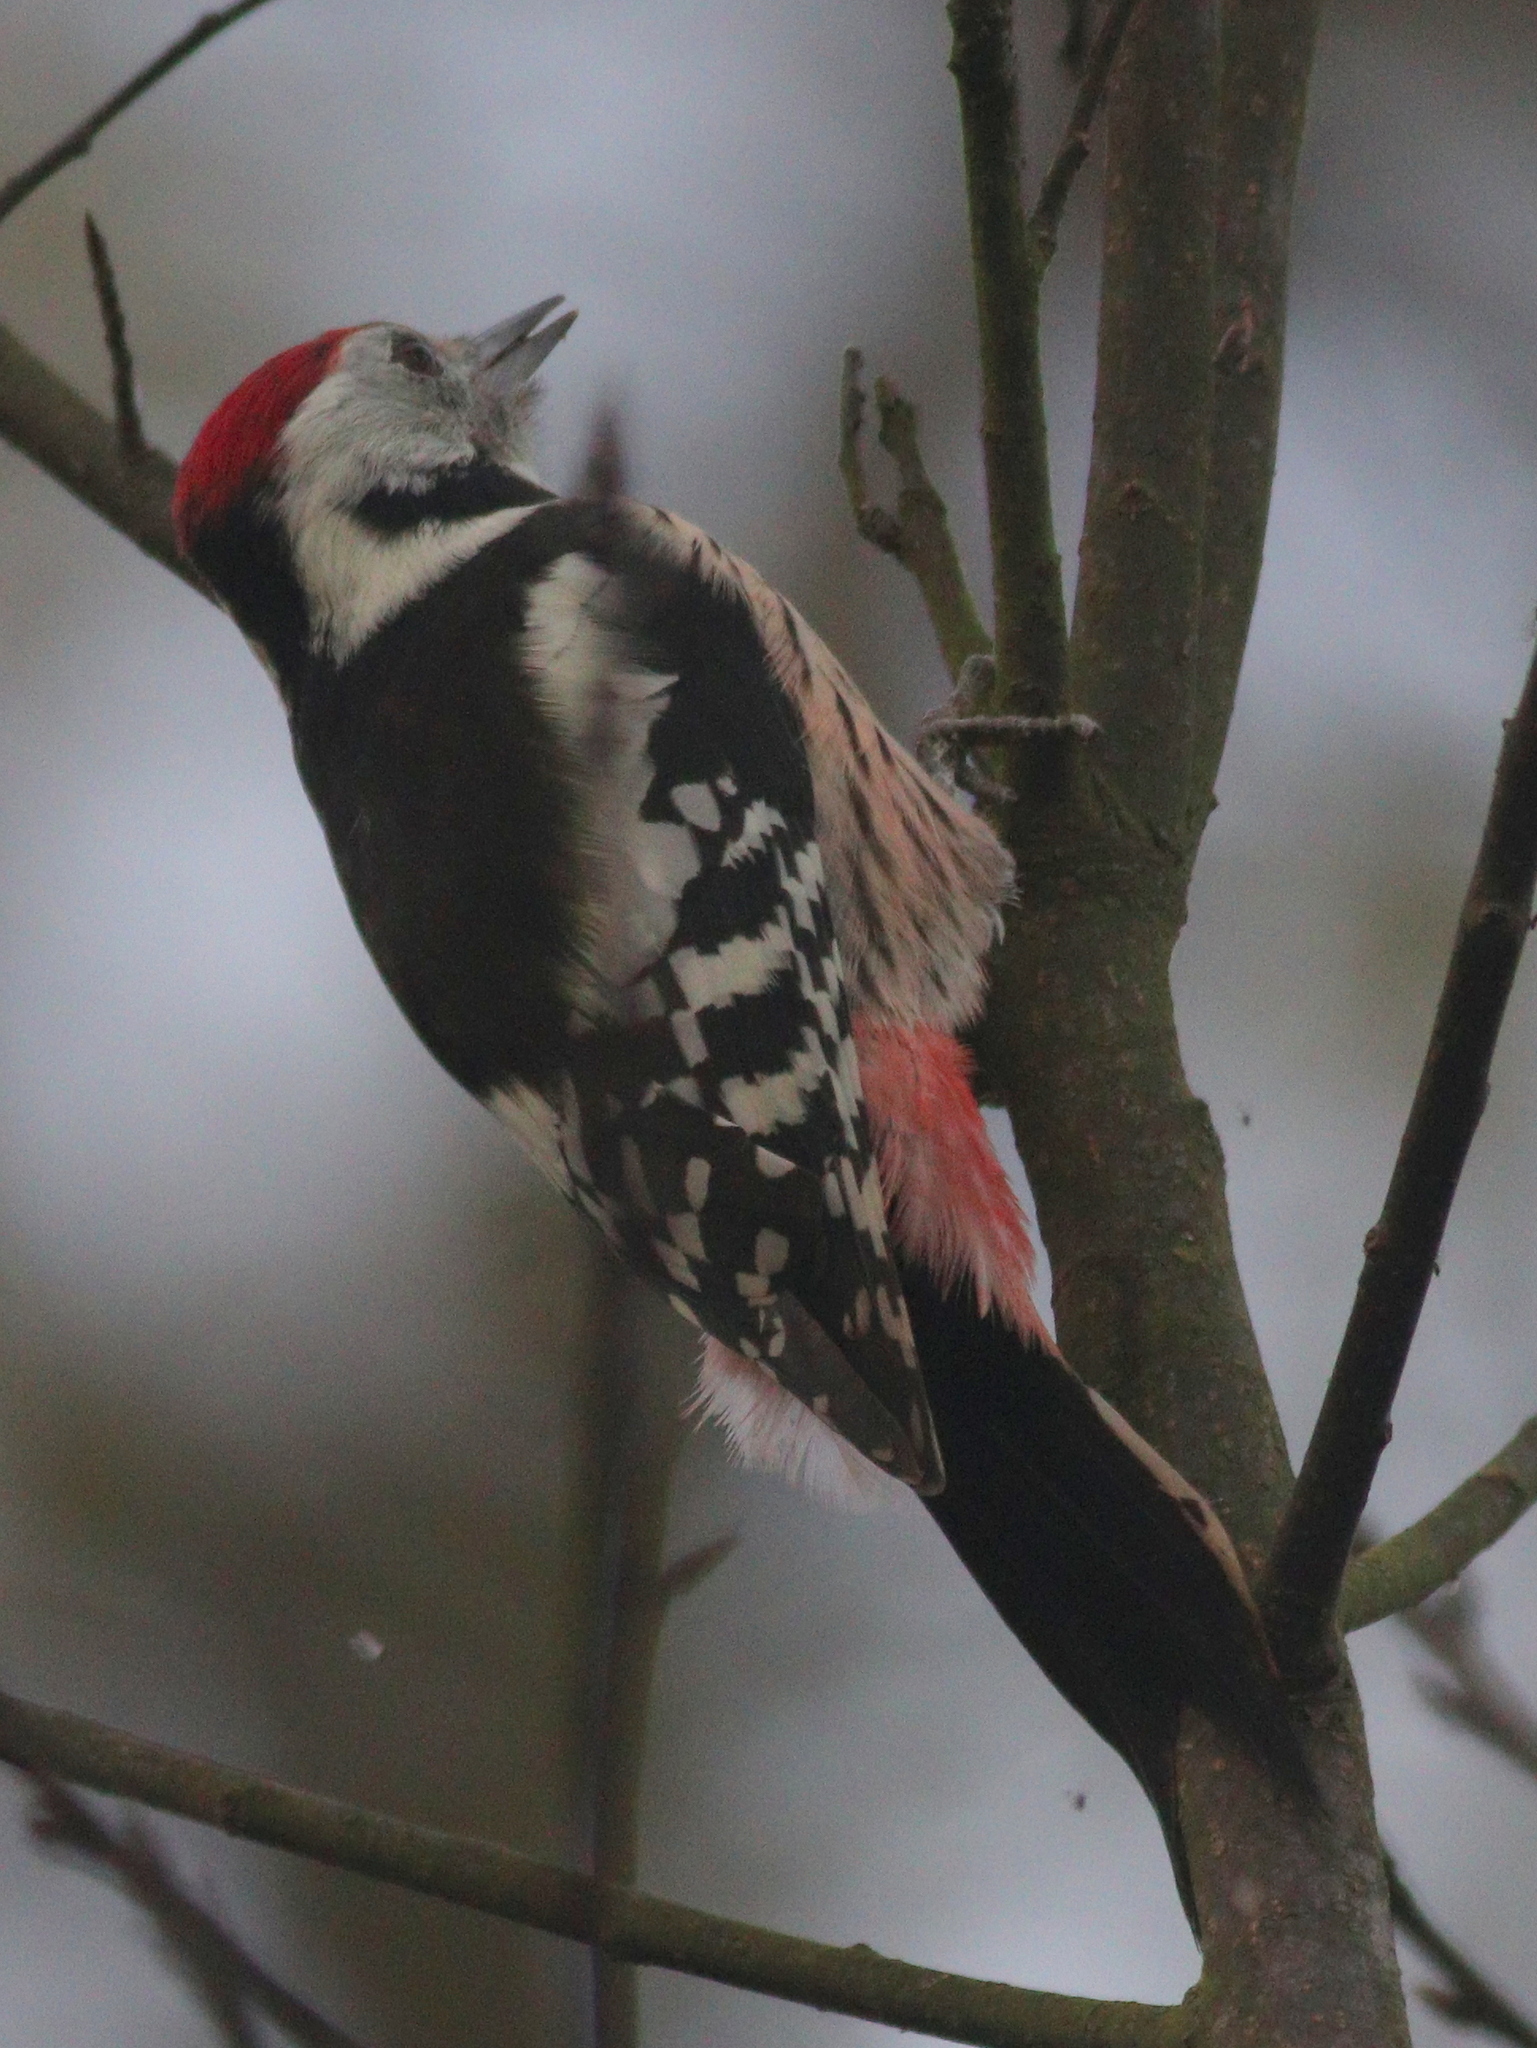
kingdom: Animalia
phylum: Chordata
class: Aves
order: Piciformes
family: Picidae
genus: Dendrocoptes
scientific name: Dendrocoptes medius
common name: Middle spotted woodpecker
